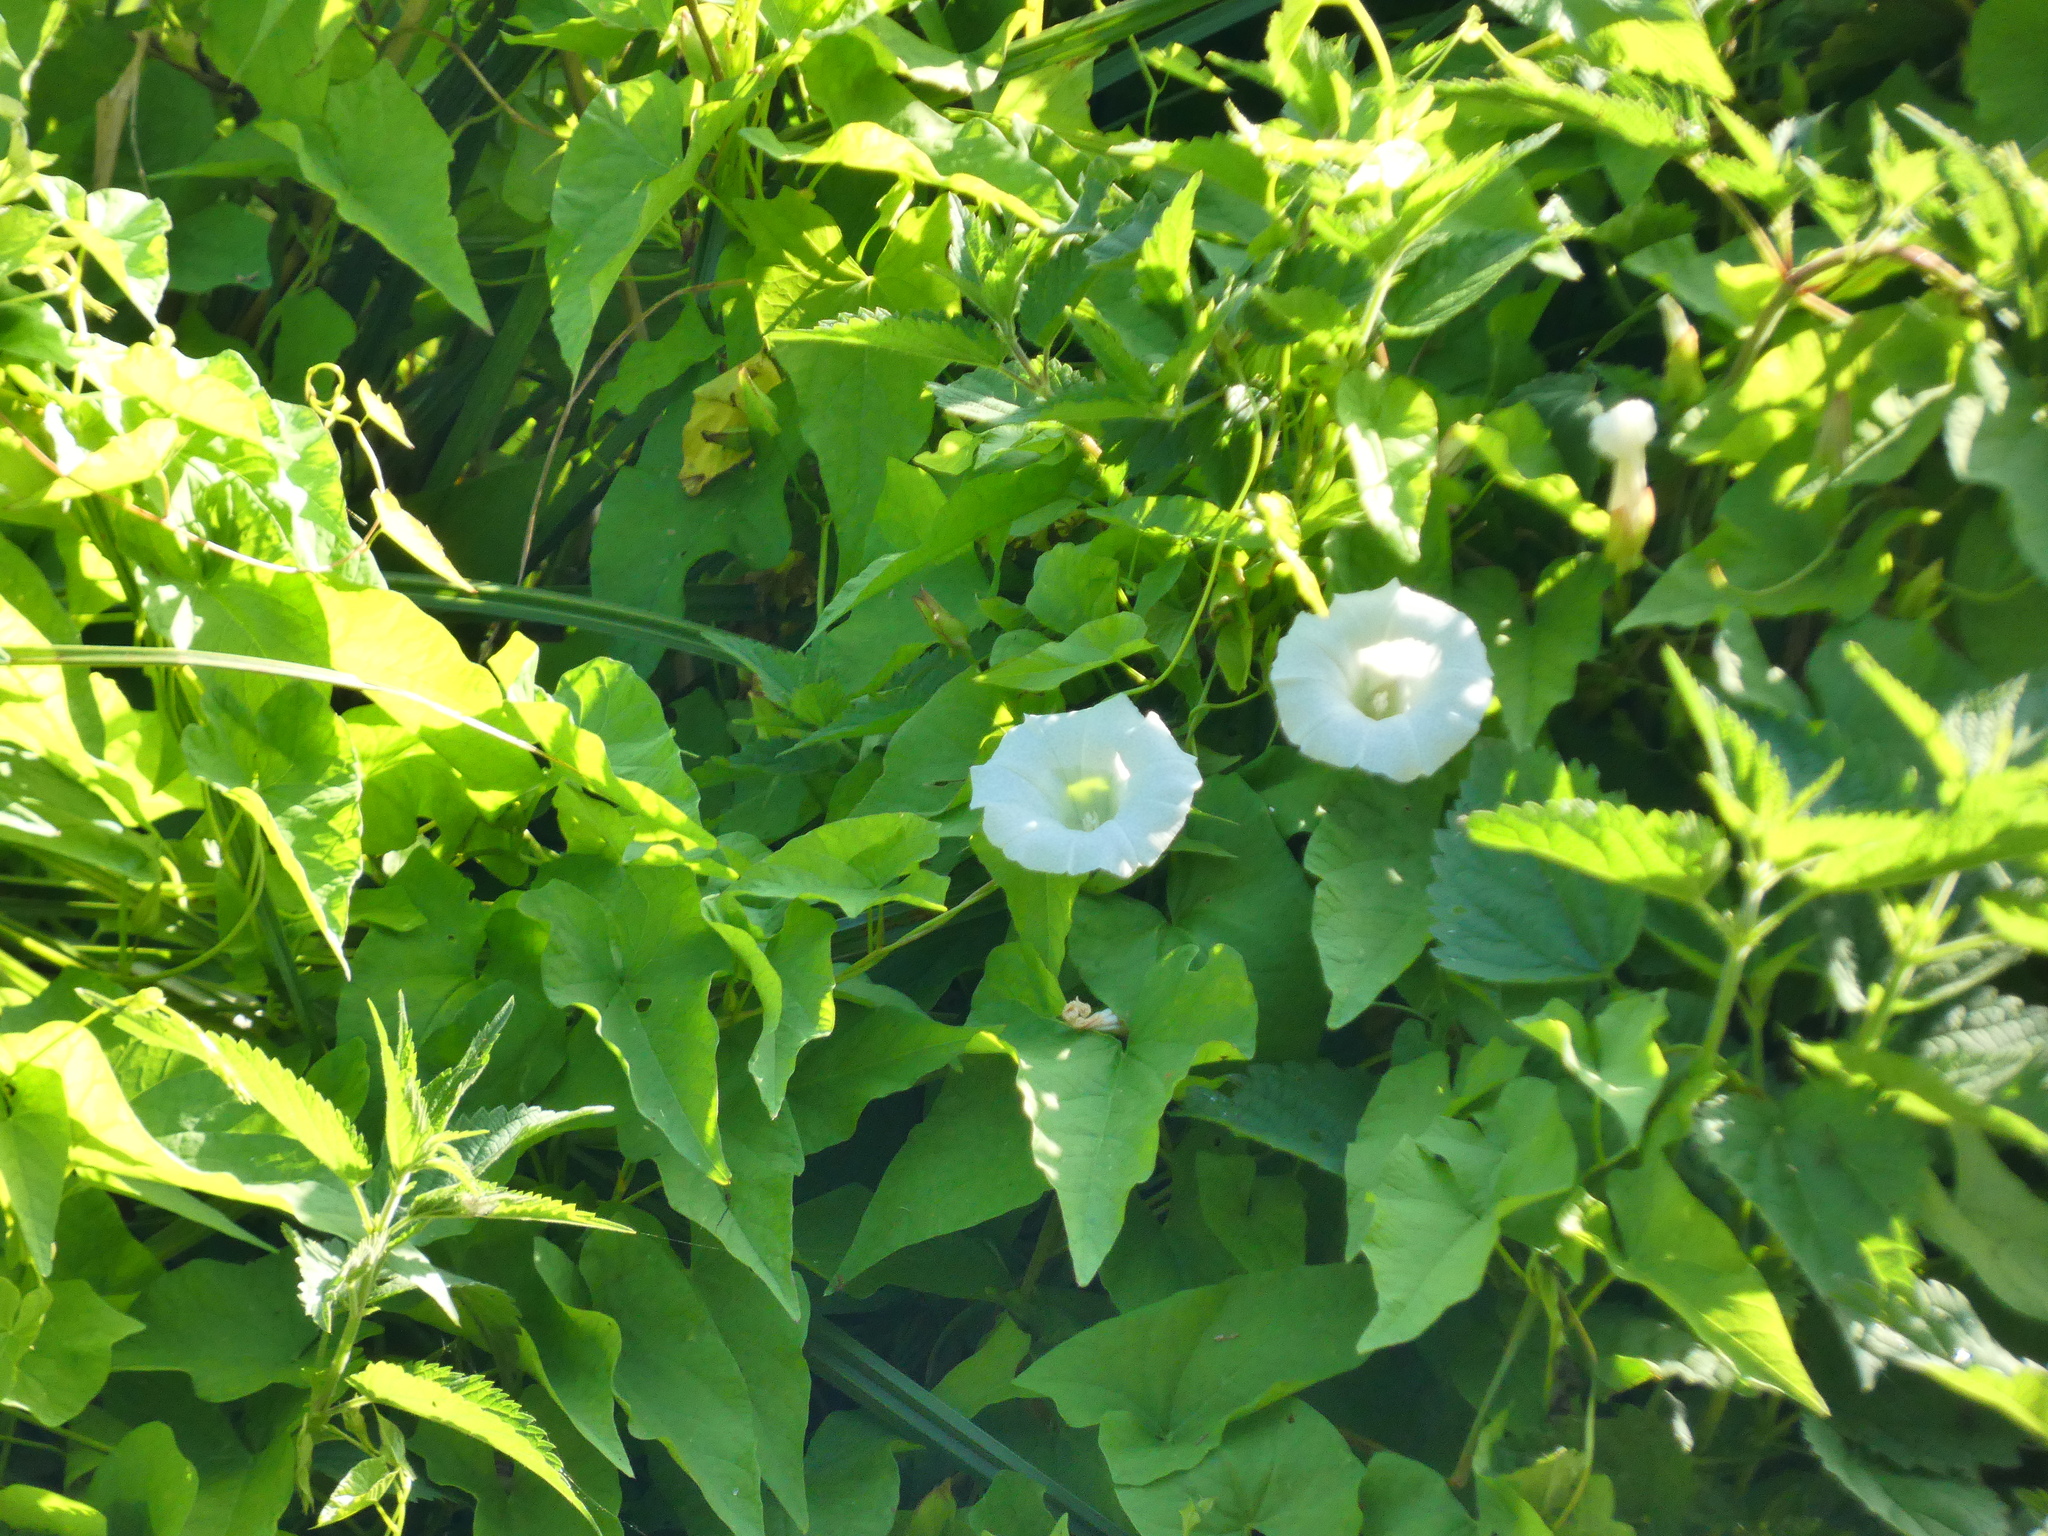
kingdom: Plantae
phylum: Tracheophyta
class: Magnoliopsida
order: Solanales
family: Convolvulaceae
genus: Calystegia
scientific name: Calystegia sepium
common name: Hedge bindweed
